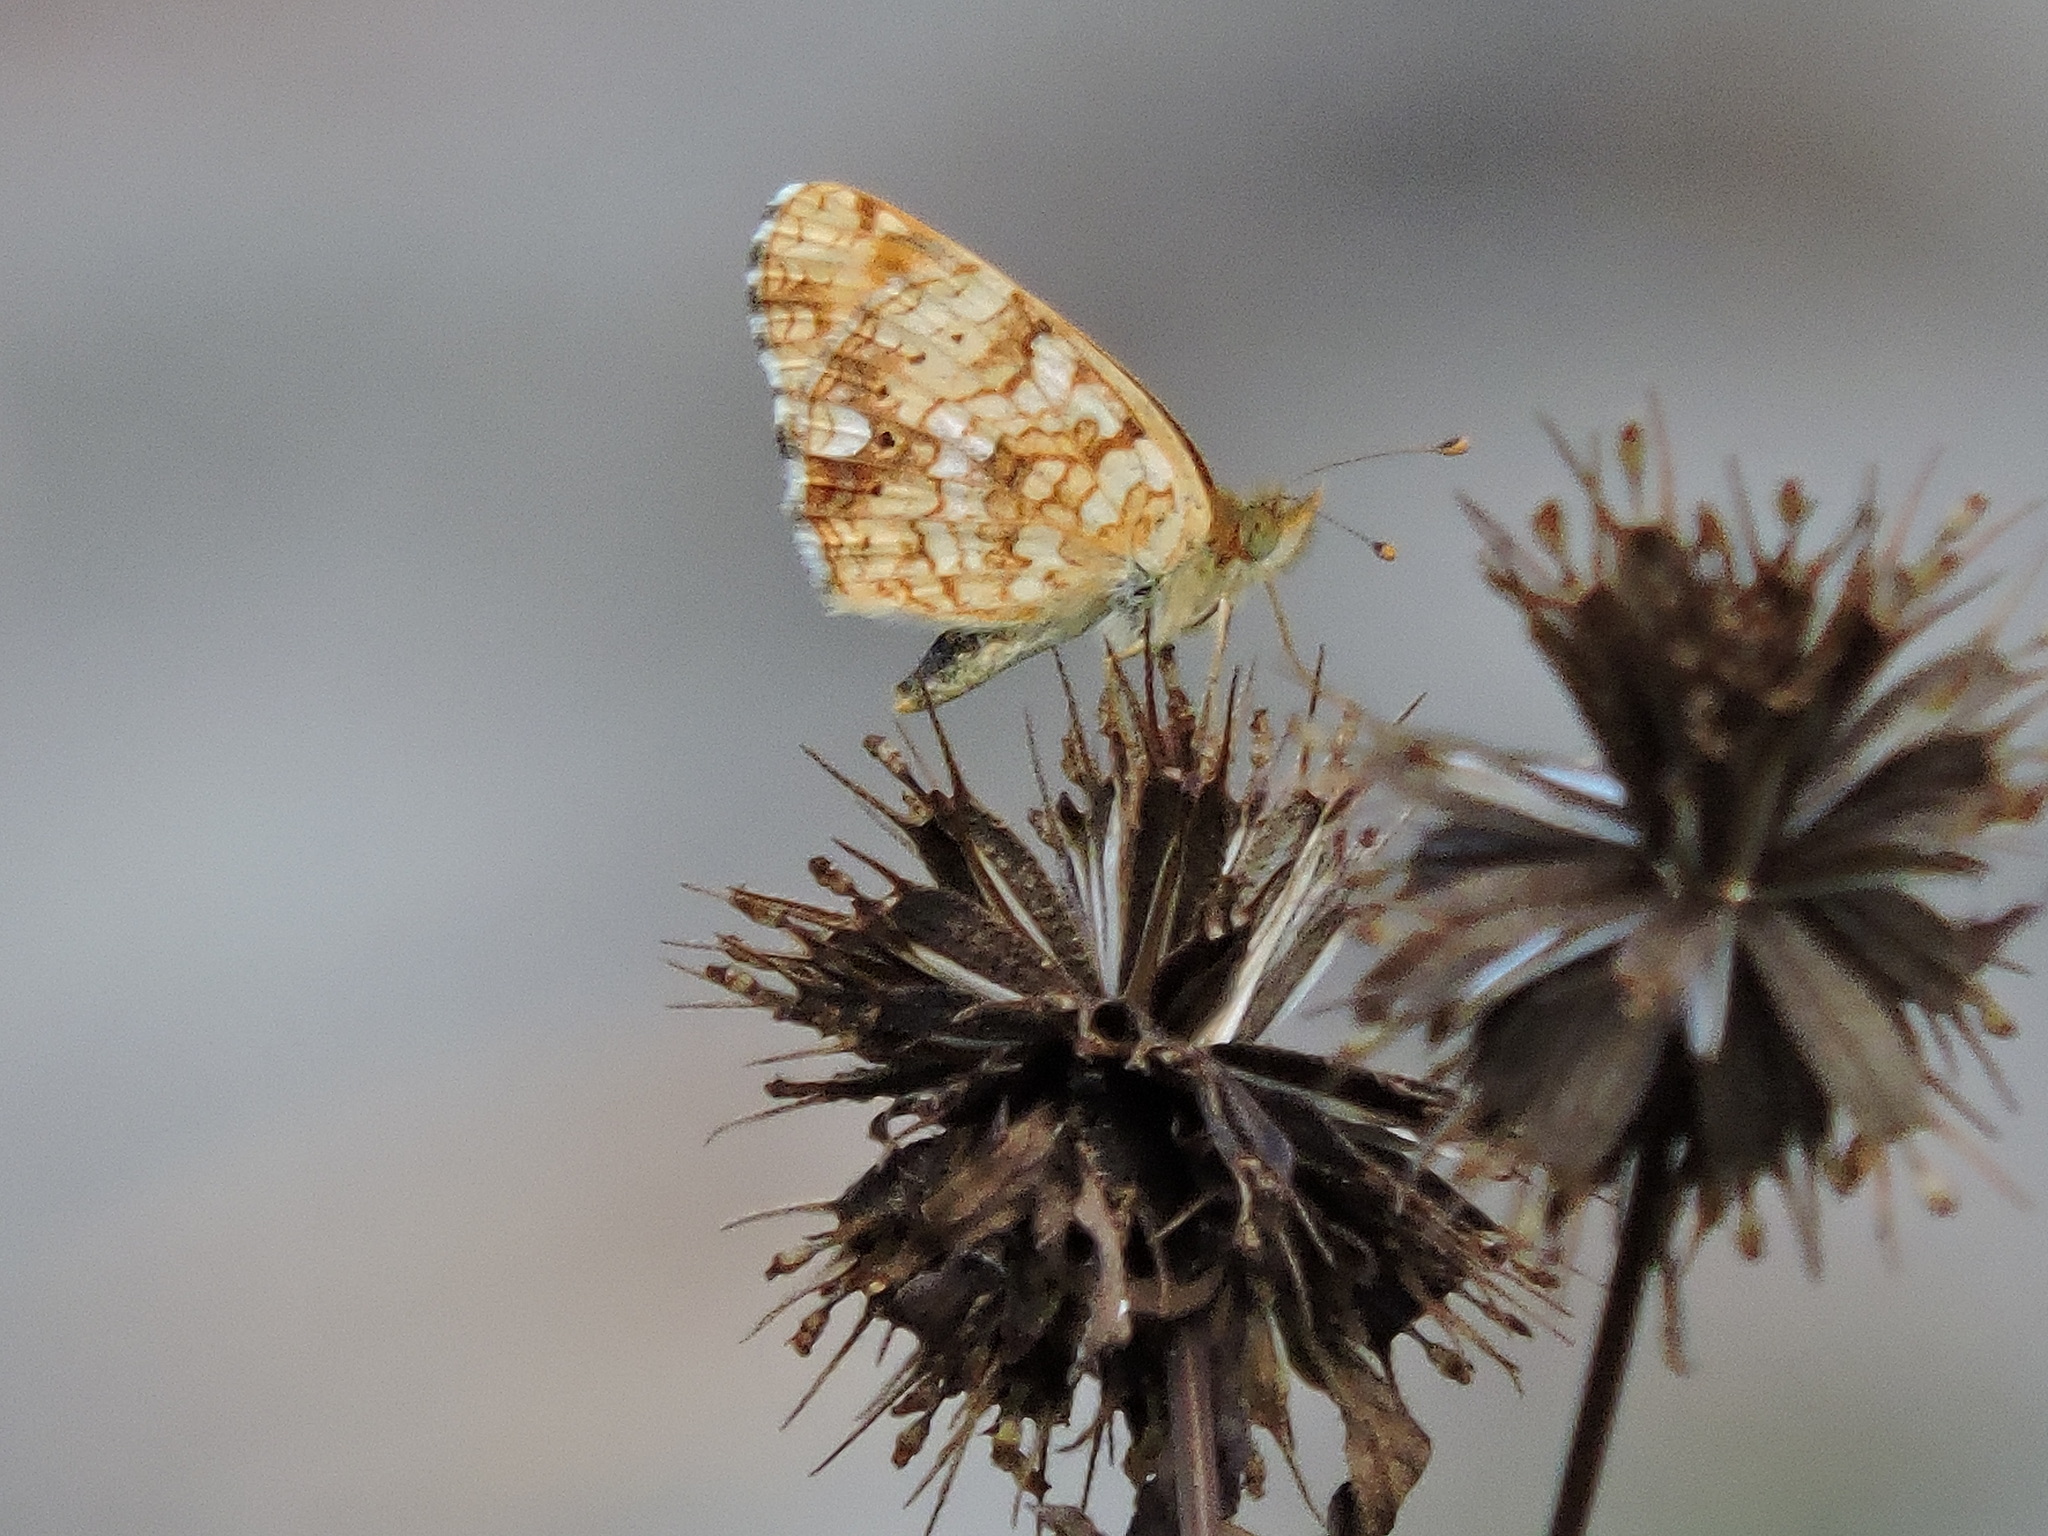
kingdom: Animalia
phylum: Arthropoda
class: Insecta
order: Lepidoptera
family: Nymphalidae
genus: Eresia
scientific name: Eresia aveyrona
